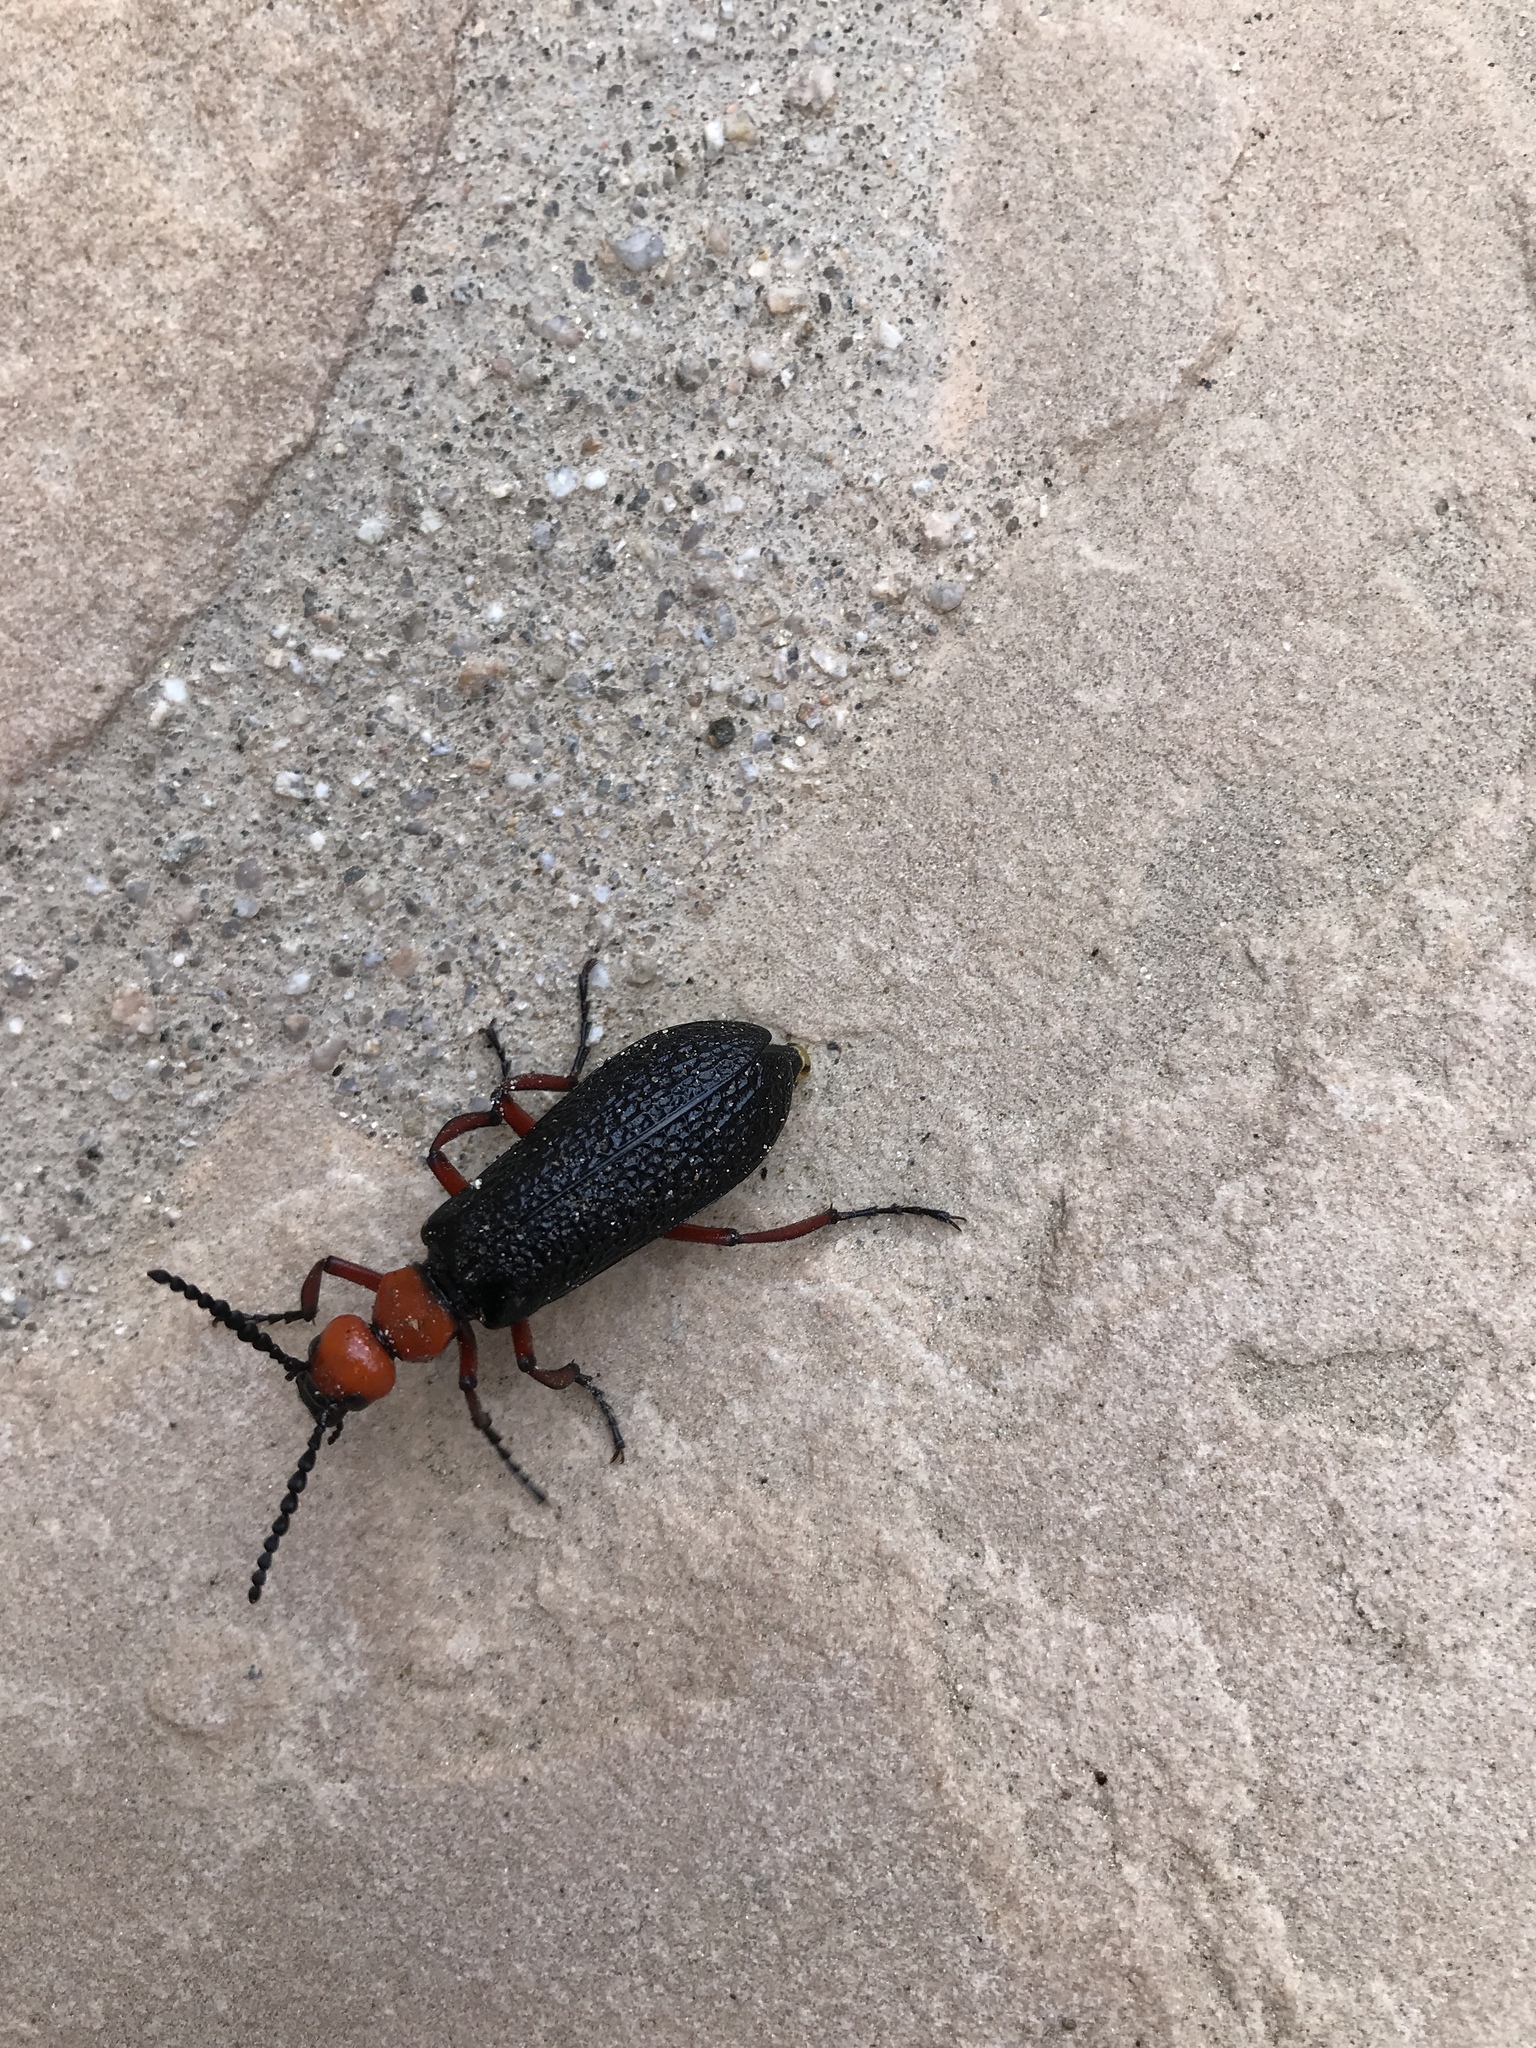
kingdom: Animalia
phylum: Arthropoda
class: Insecta
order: Coleoptera
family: Meloidae
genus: Lytta
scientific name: Lytta magister
